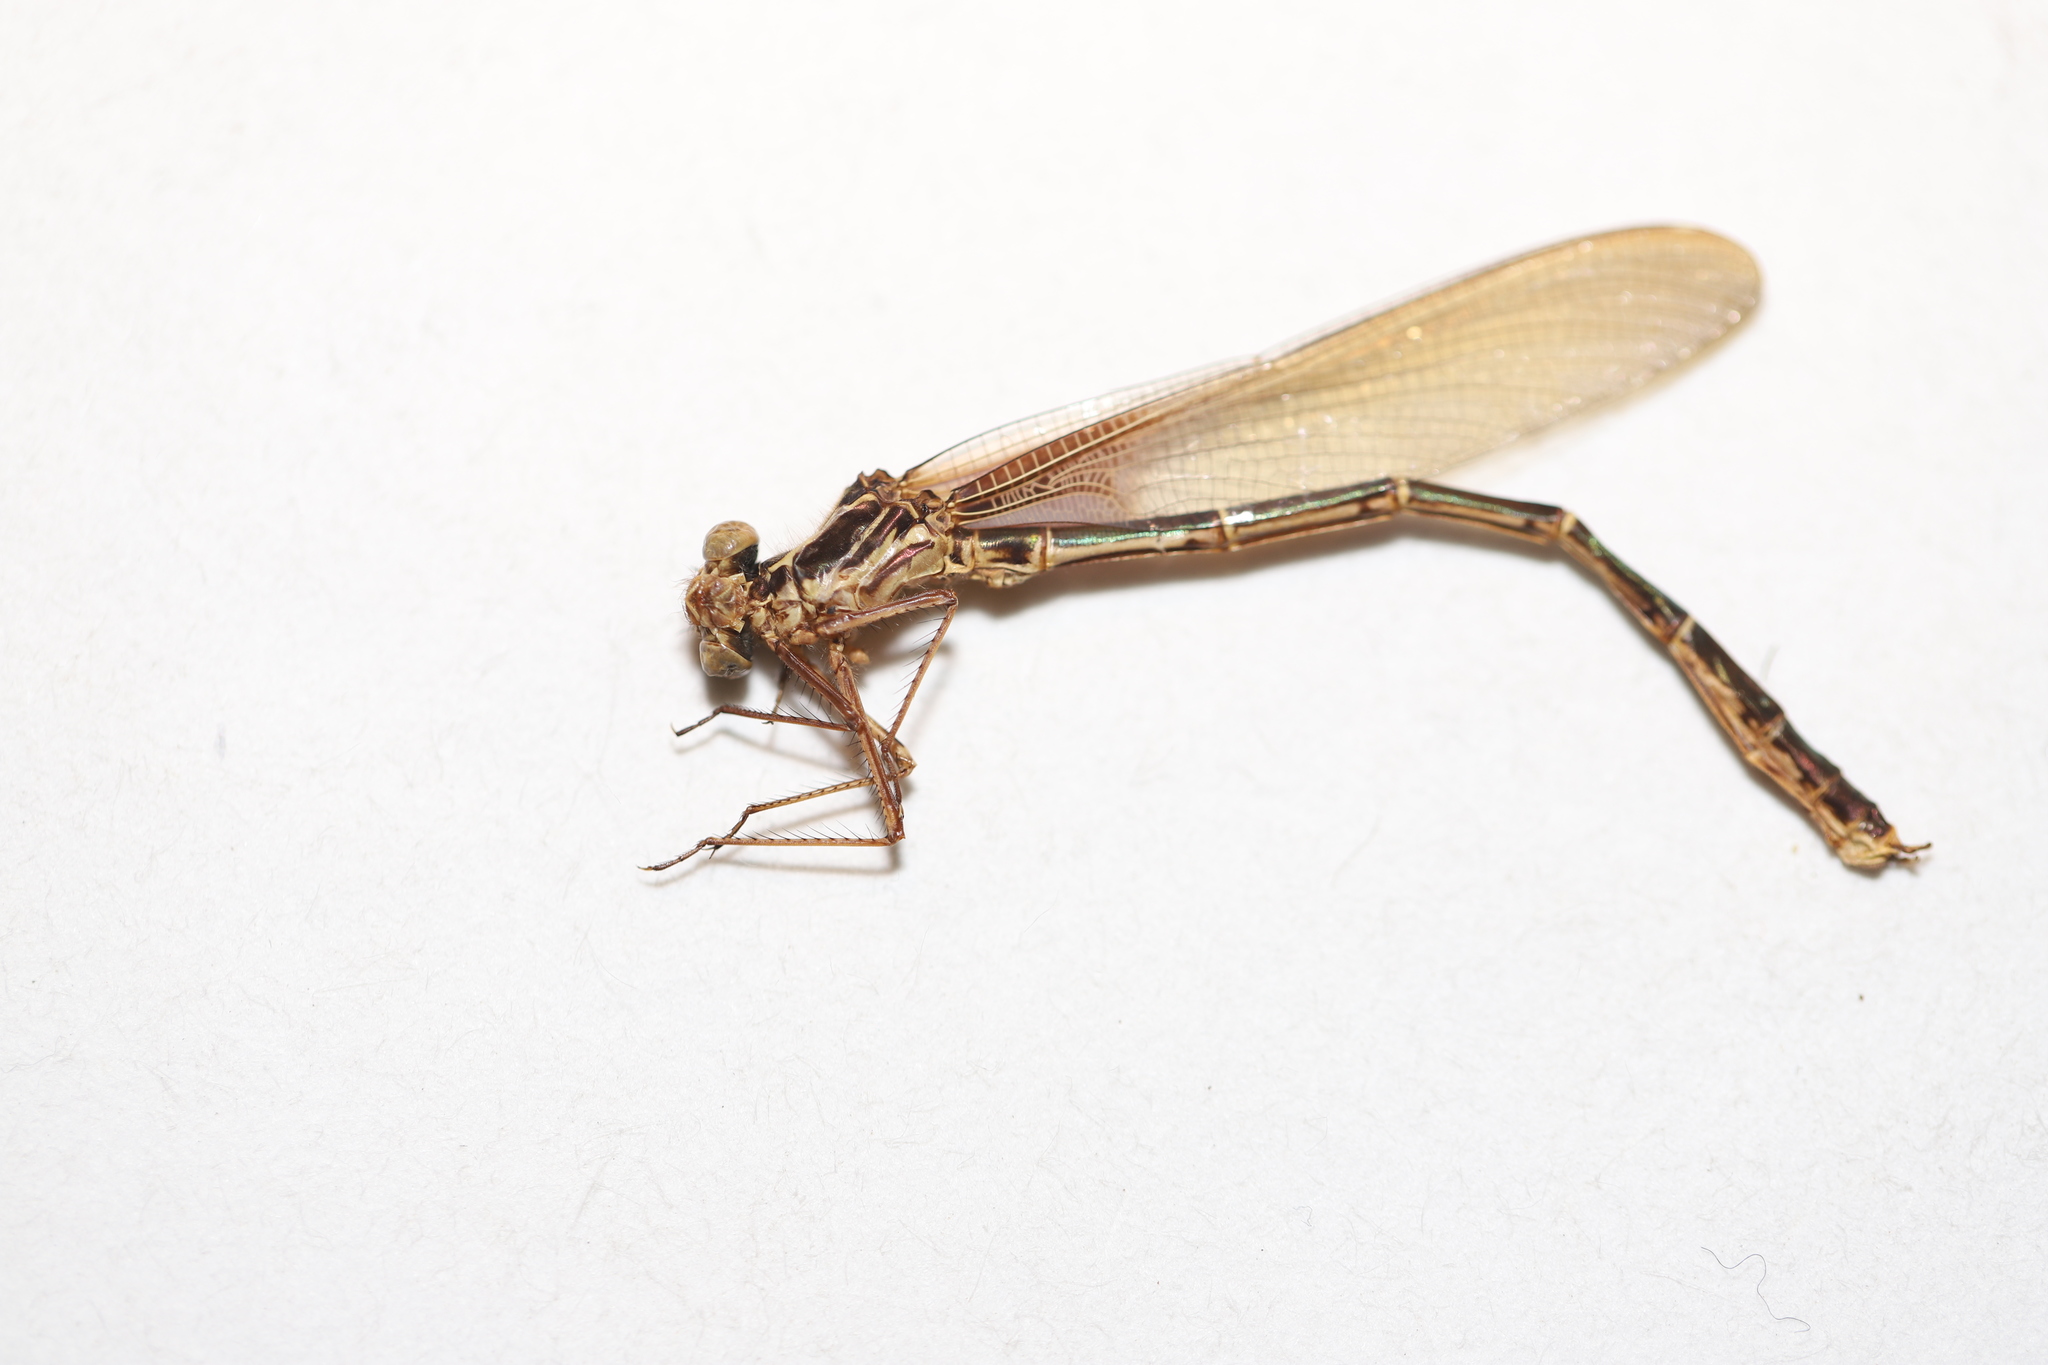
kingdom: Animalia
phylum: Arthropoda
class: Insecta
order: Odonata
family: Calopterygidae
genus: Hetaerina
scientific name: Hetaerina americana
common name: American rubyspot
